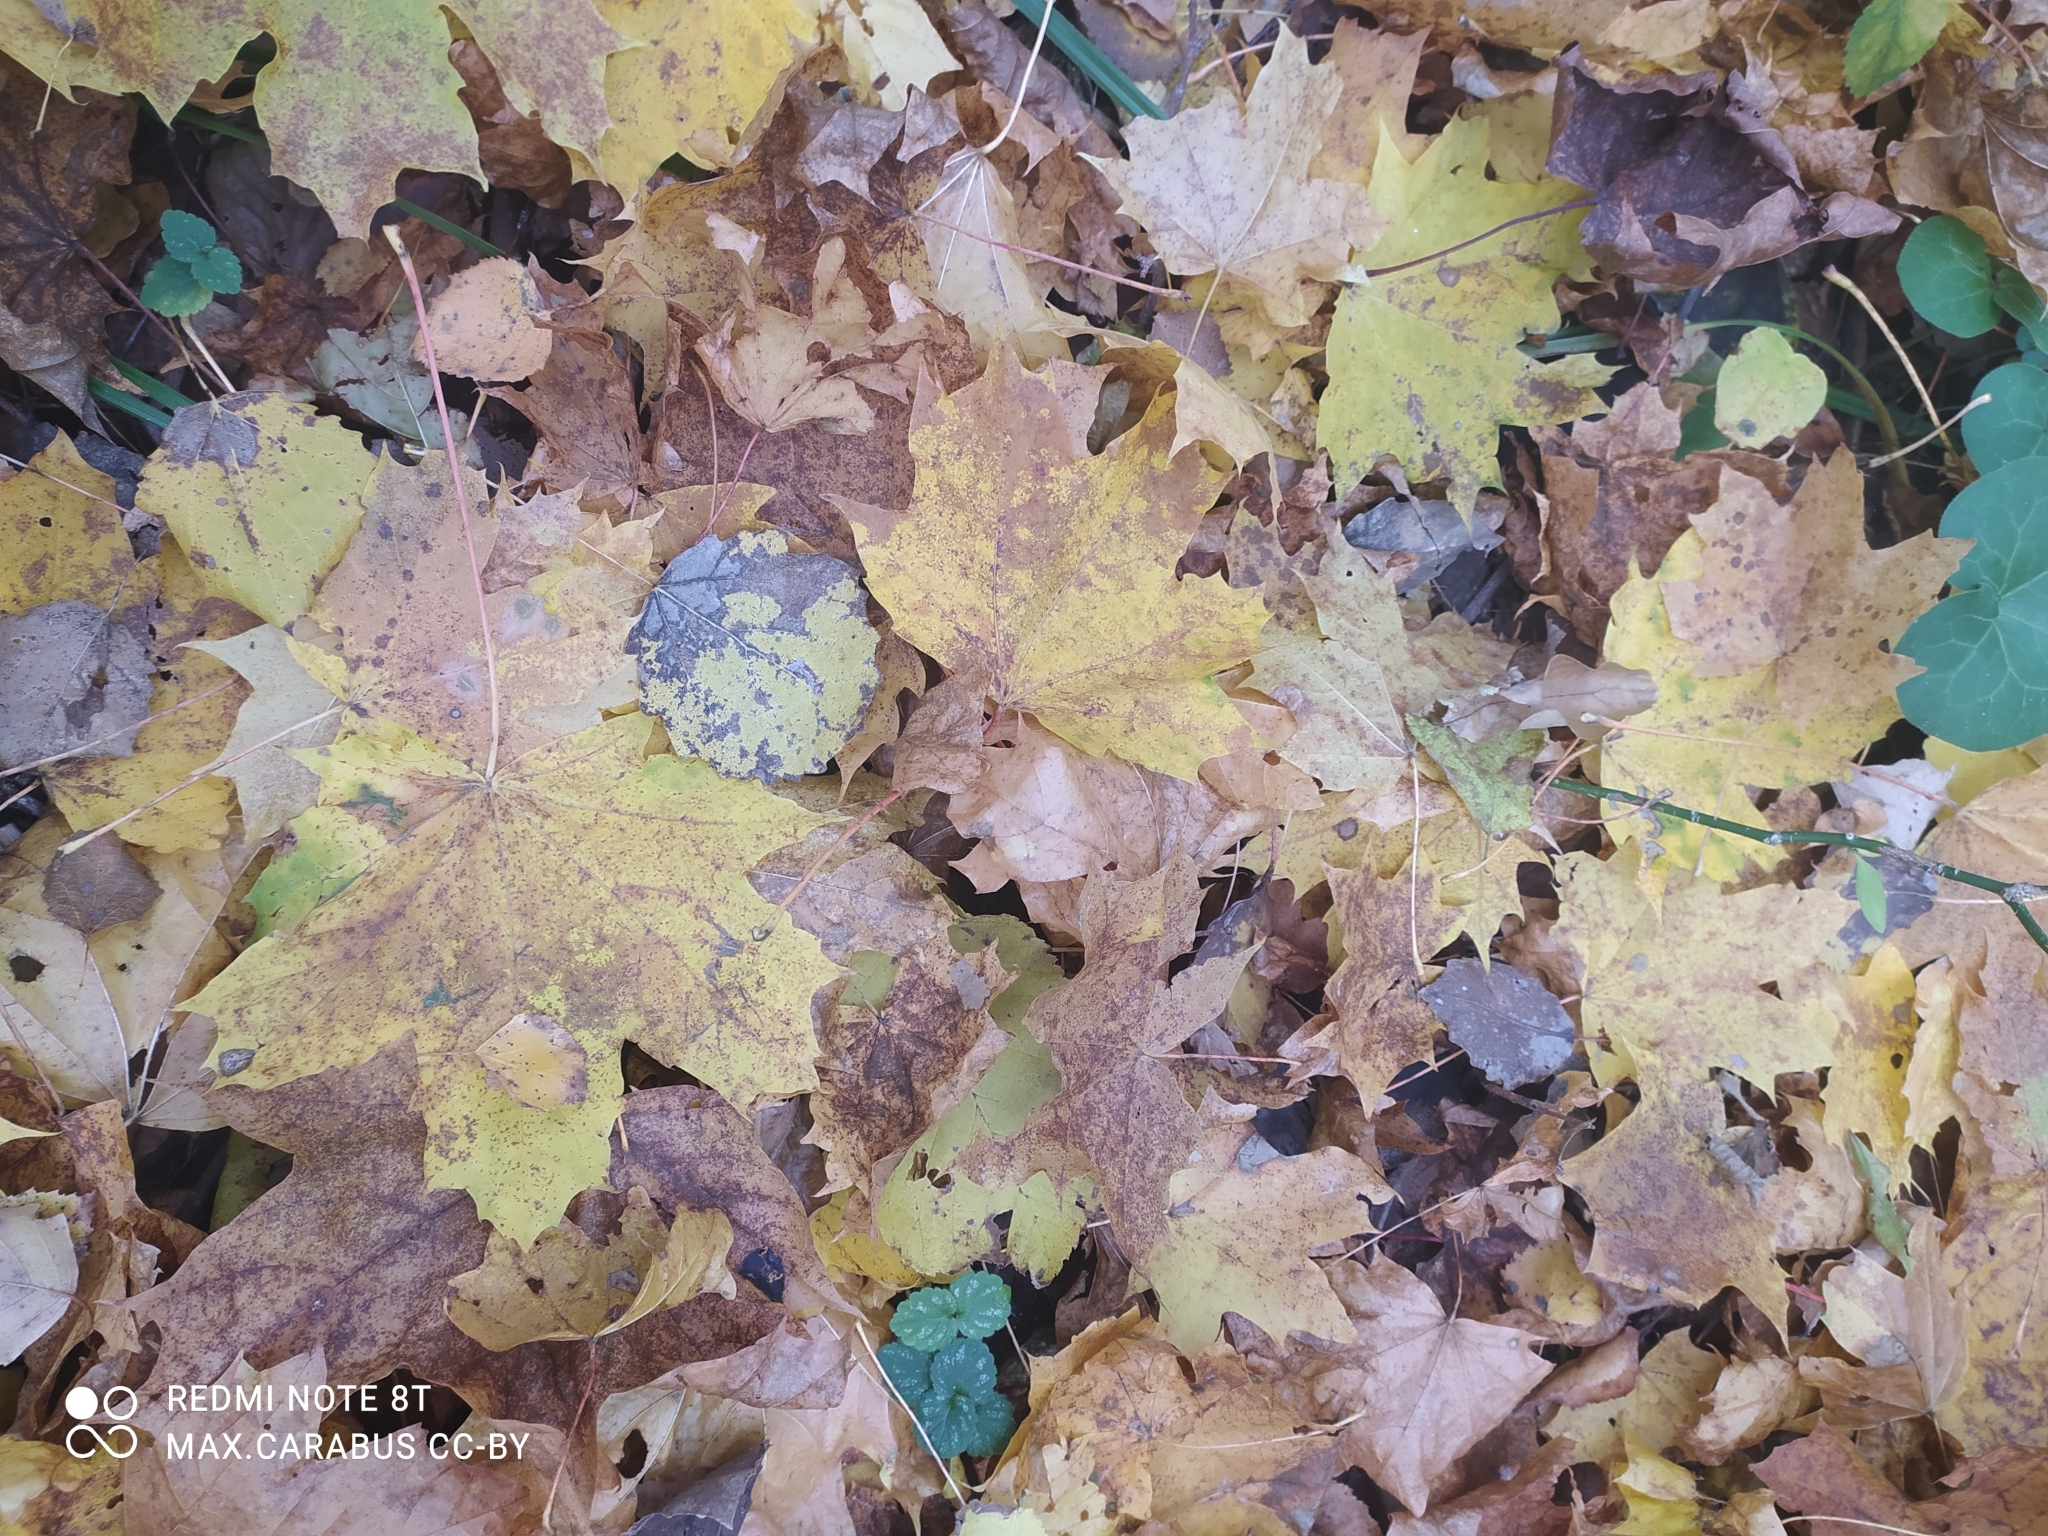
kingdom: Plantae
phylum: Tracheophyta
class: Magnoliopsida
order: Sapindales
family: Sapindaceae
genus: Acer
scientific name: Acer platanoides
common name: Norway maple
